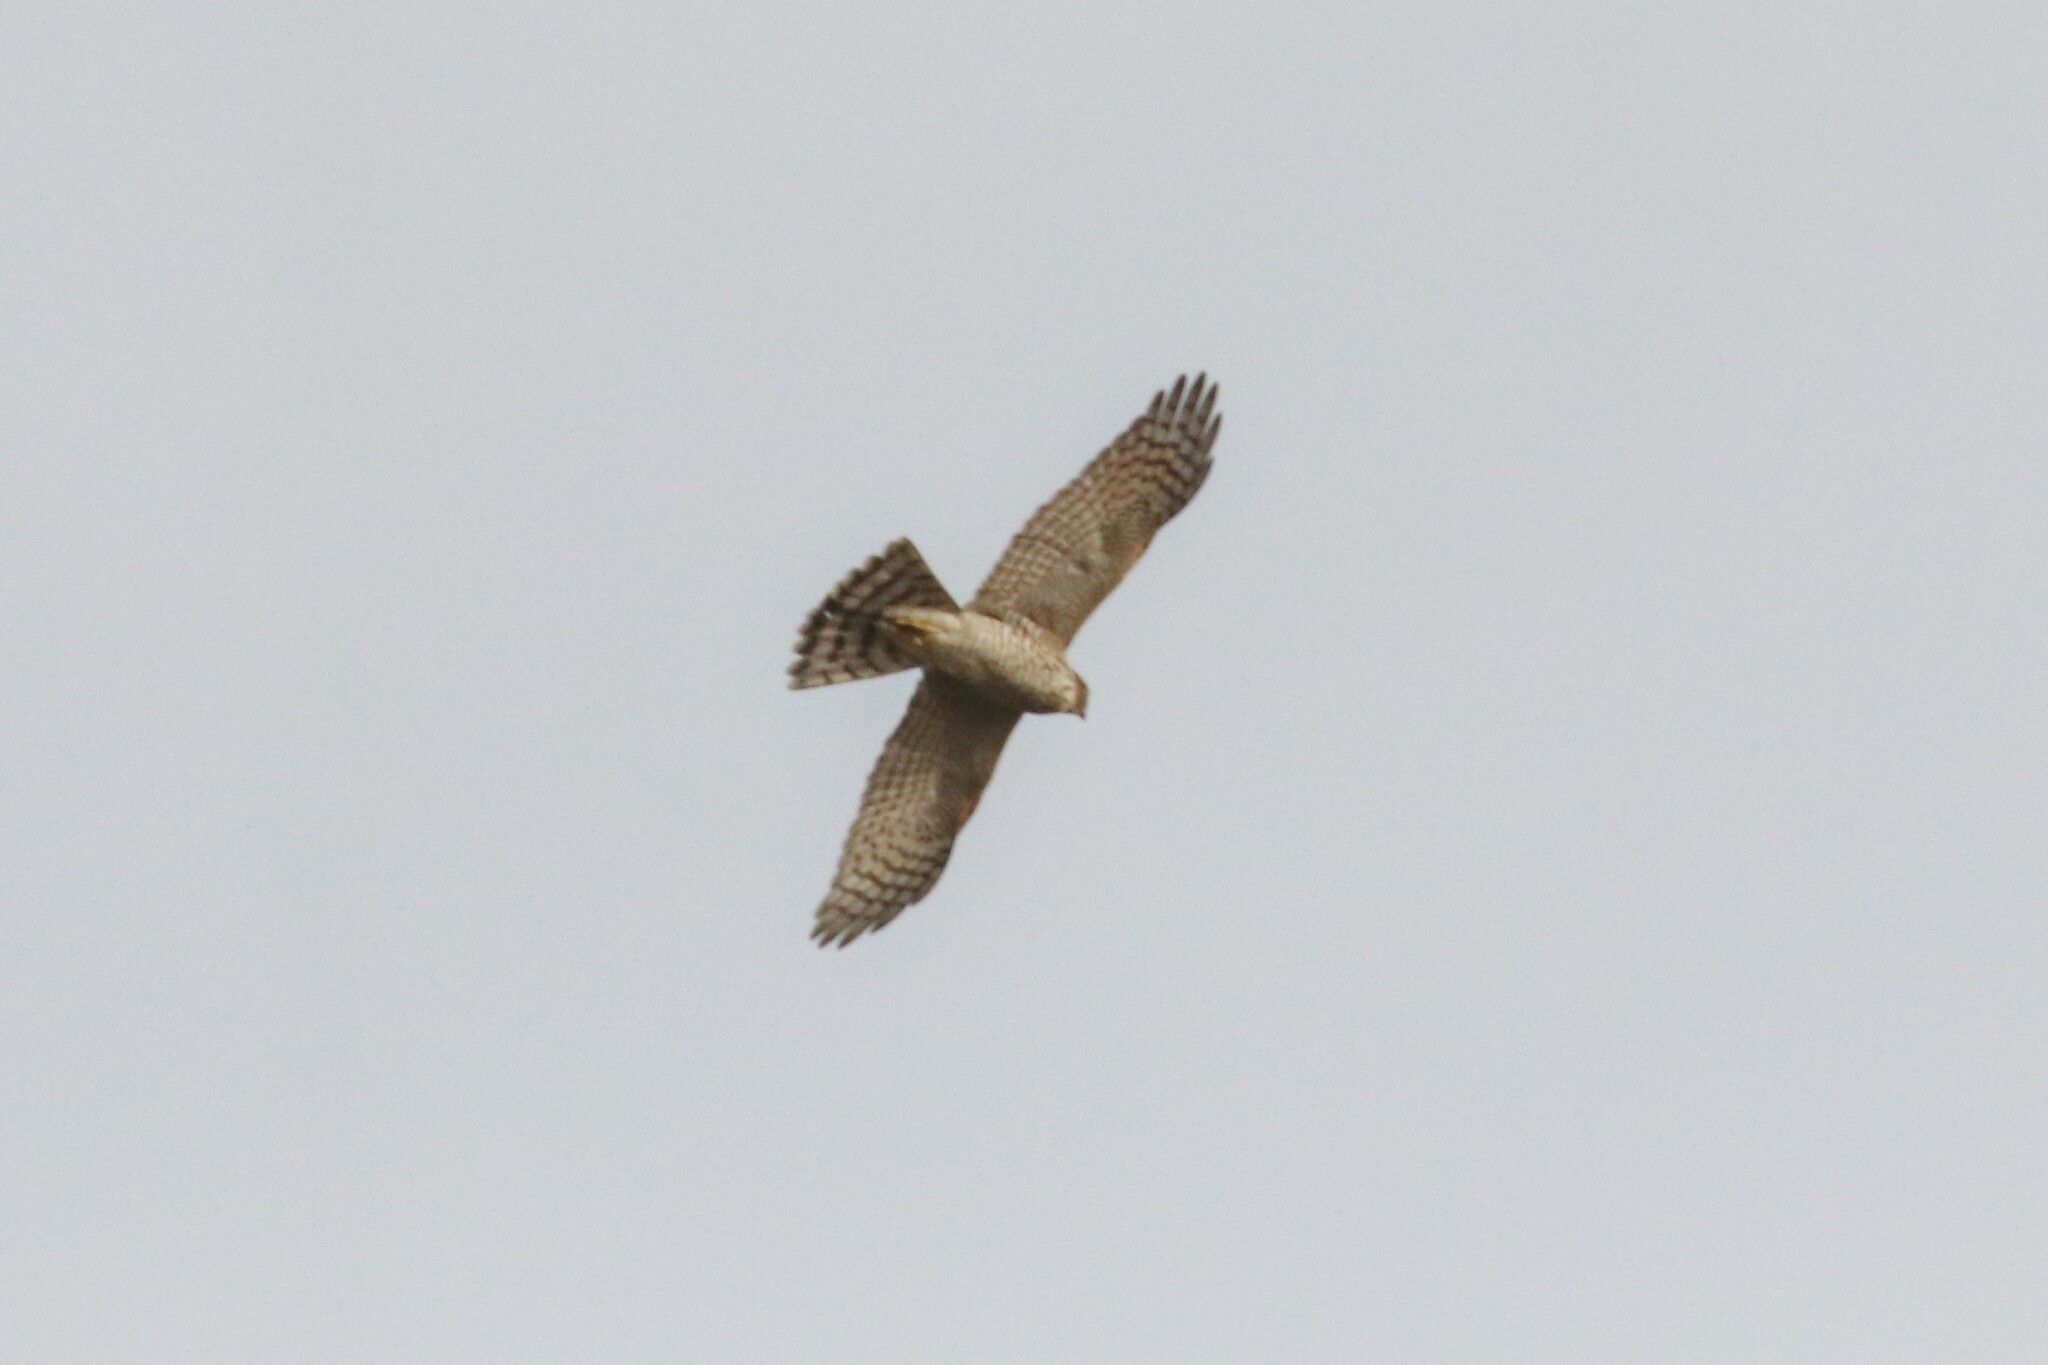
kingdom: Animalia
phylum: Chordata
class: Aves
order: Accipitriformes
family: Accipitridae
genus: Accipiter
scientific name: Accipiter nisus
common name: Eurasian sparrowhawk
